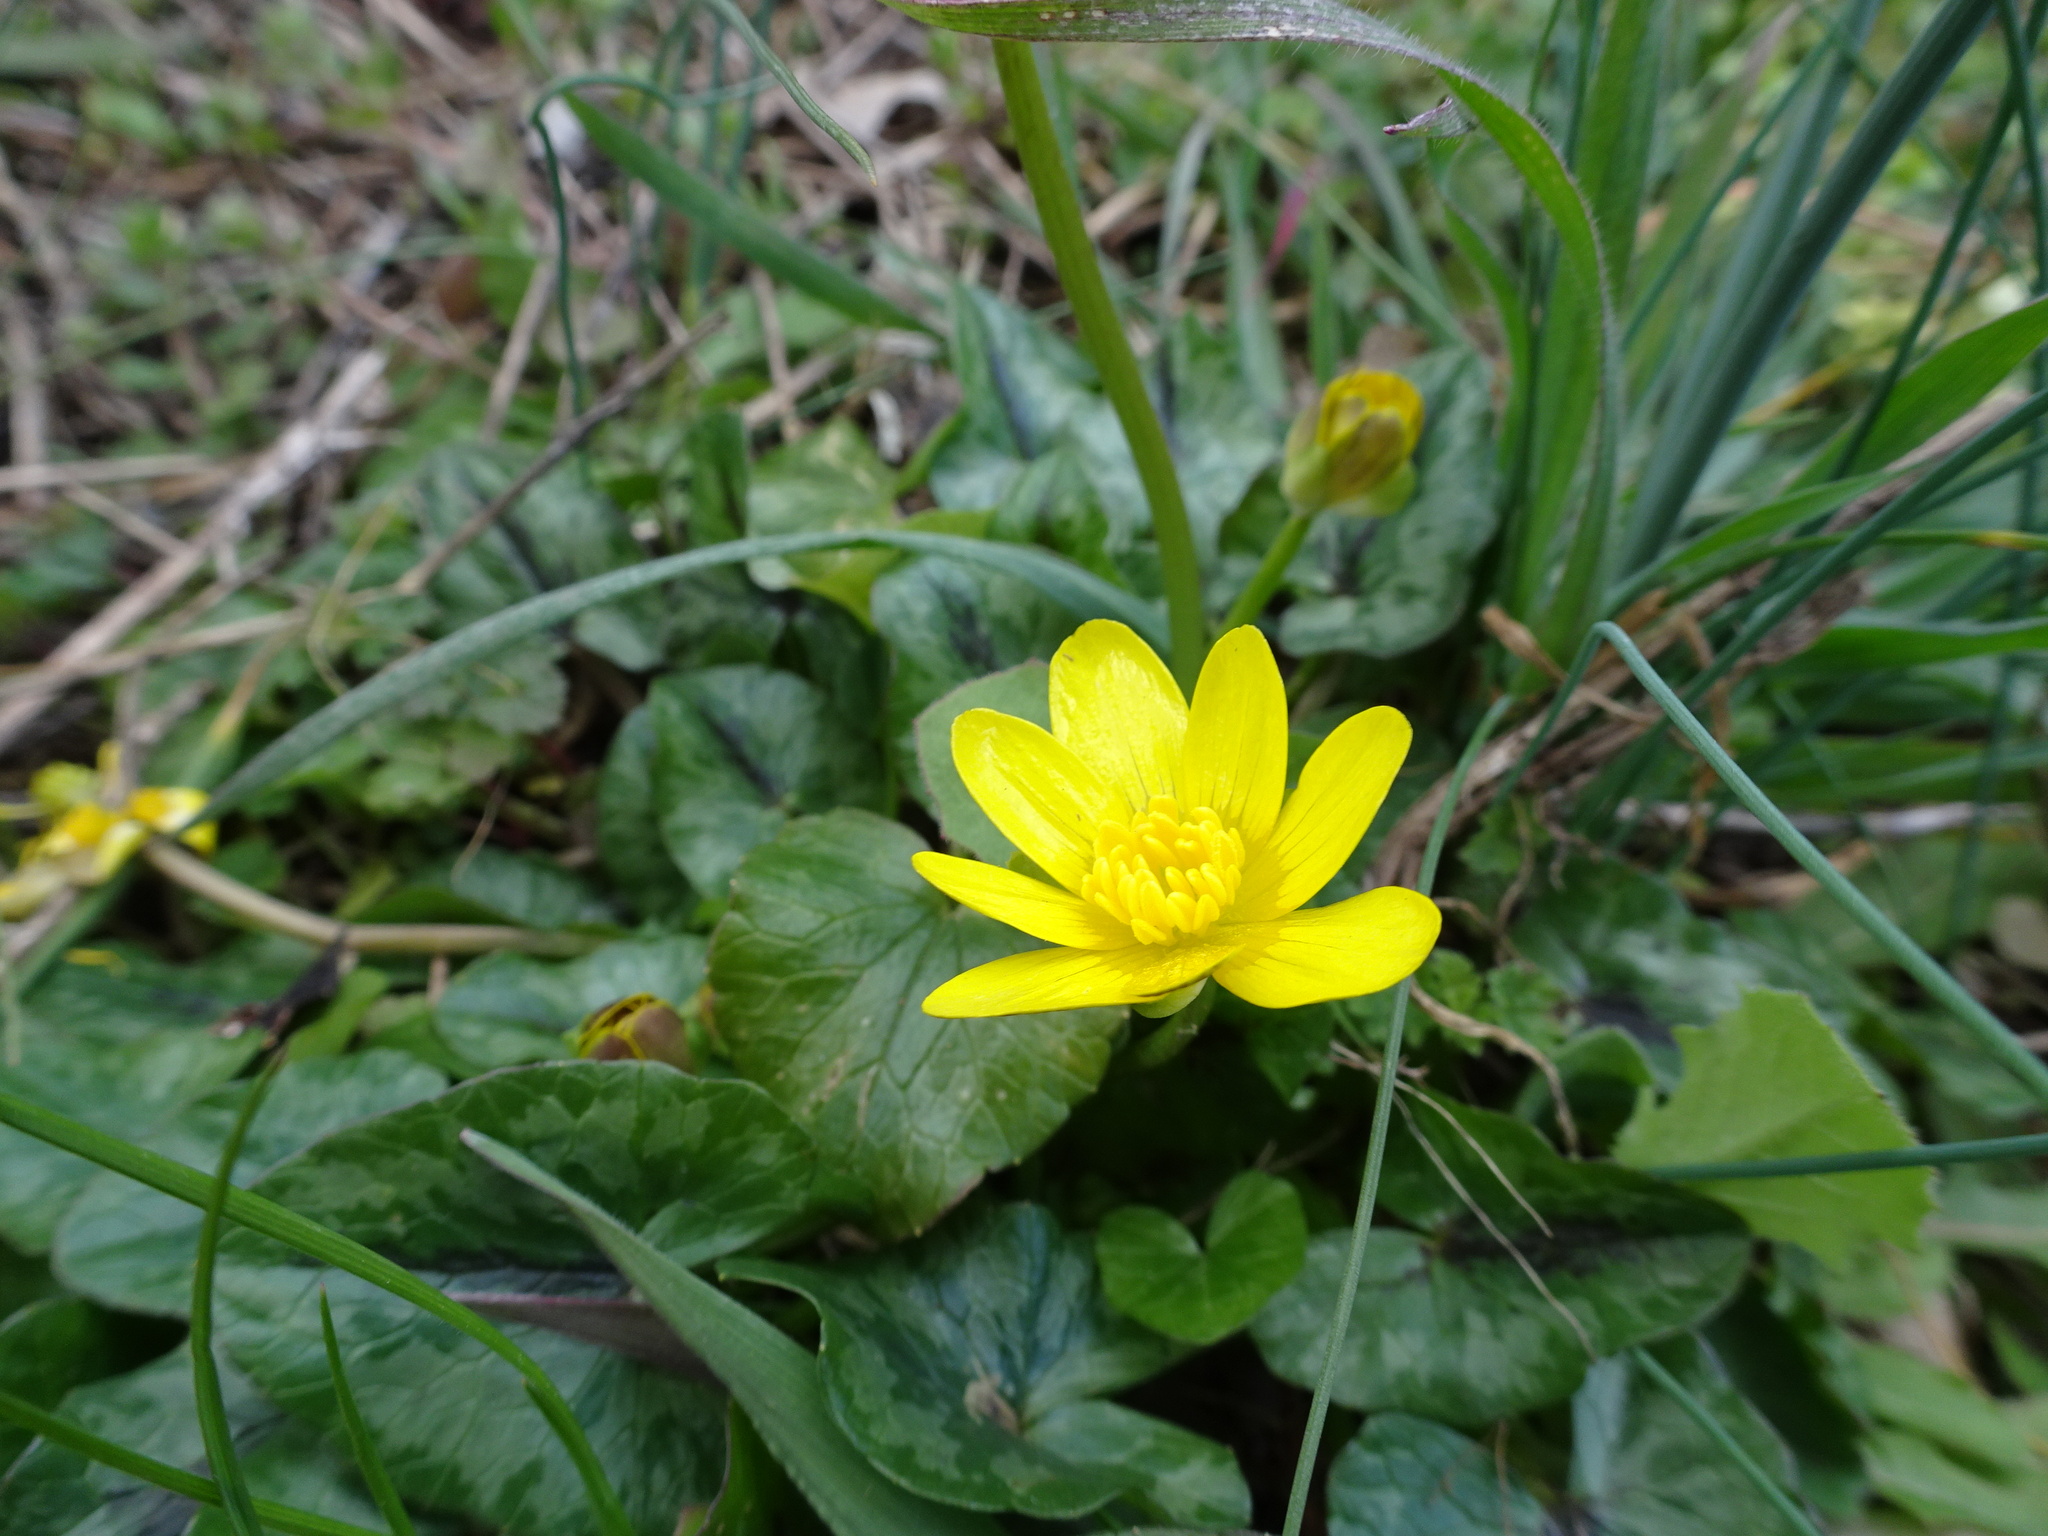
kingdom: Plantae
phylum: Tracheophyta
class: Magnoliopsida
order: Ranunculales
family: Ranunculaceae
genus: Ficaria
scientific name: Ficaria verna
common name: Lesser celandine
